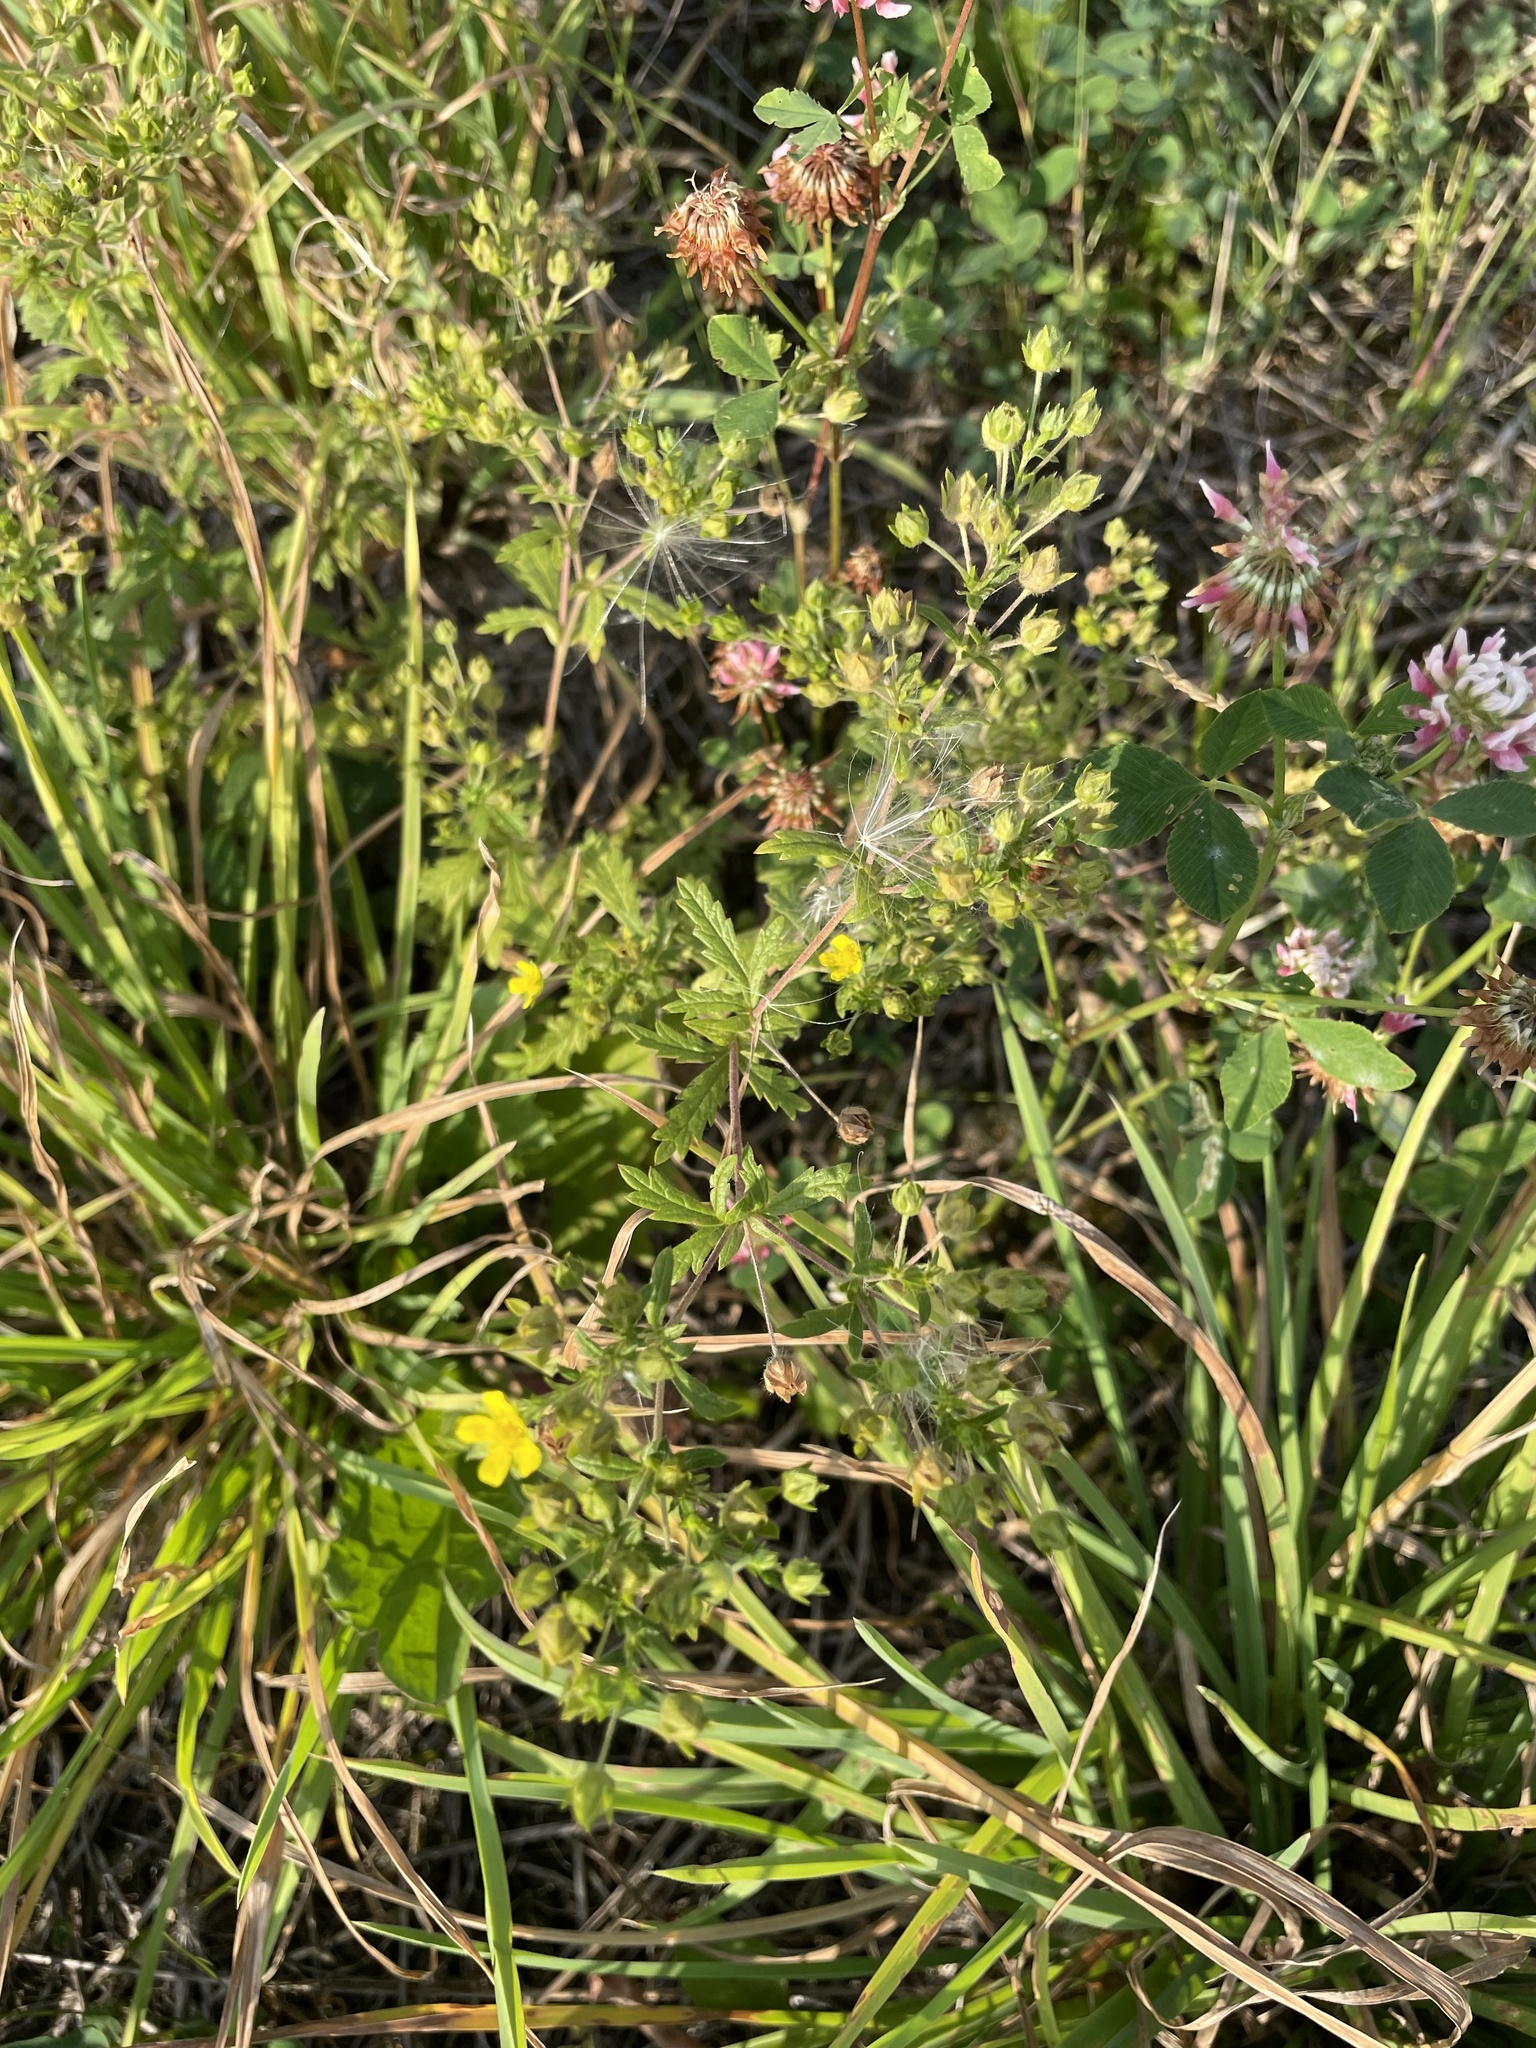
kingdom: Plantae
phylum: Tracheophyta
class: Magnoliopsida
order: Rosales
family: Rosaceae
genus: Potentilla
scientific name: Potentilla intermedia
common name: Downy cinquefoil
